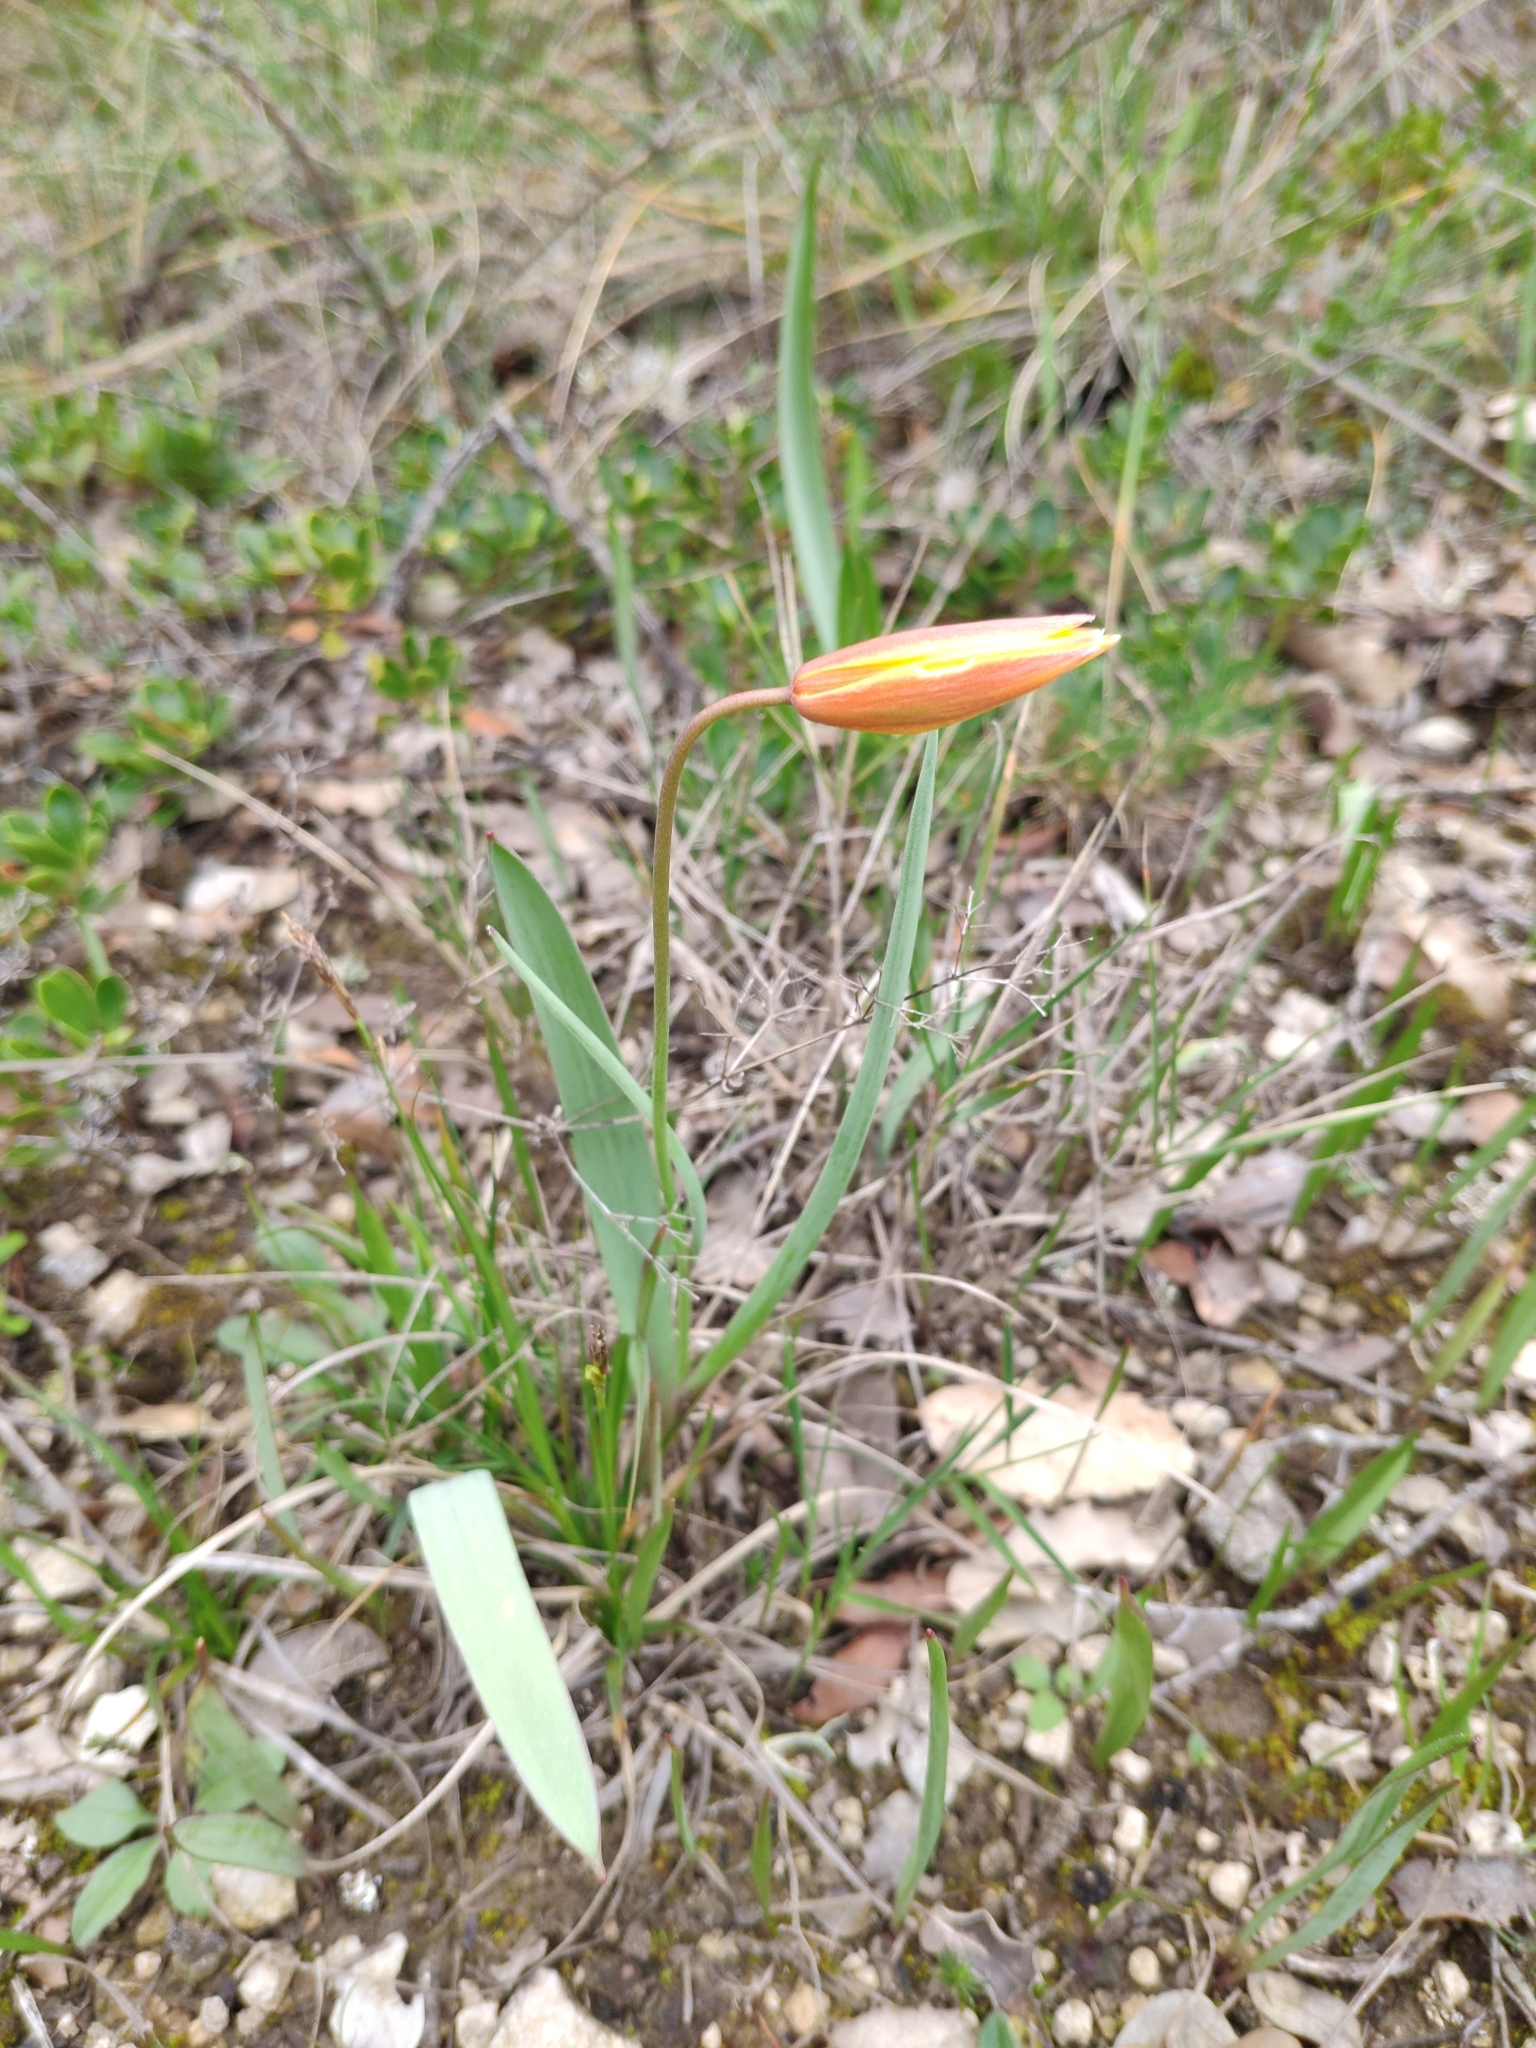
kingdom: Plantae
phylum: Tracheophyta
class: Liliopsida
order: Liliales
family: Liliaceae
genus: Tulipa
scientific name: Tulipa sylvestris
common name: Wild tulip
